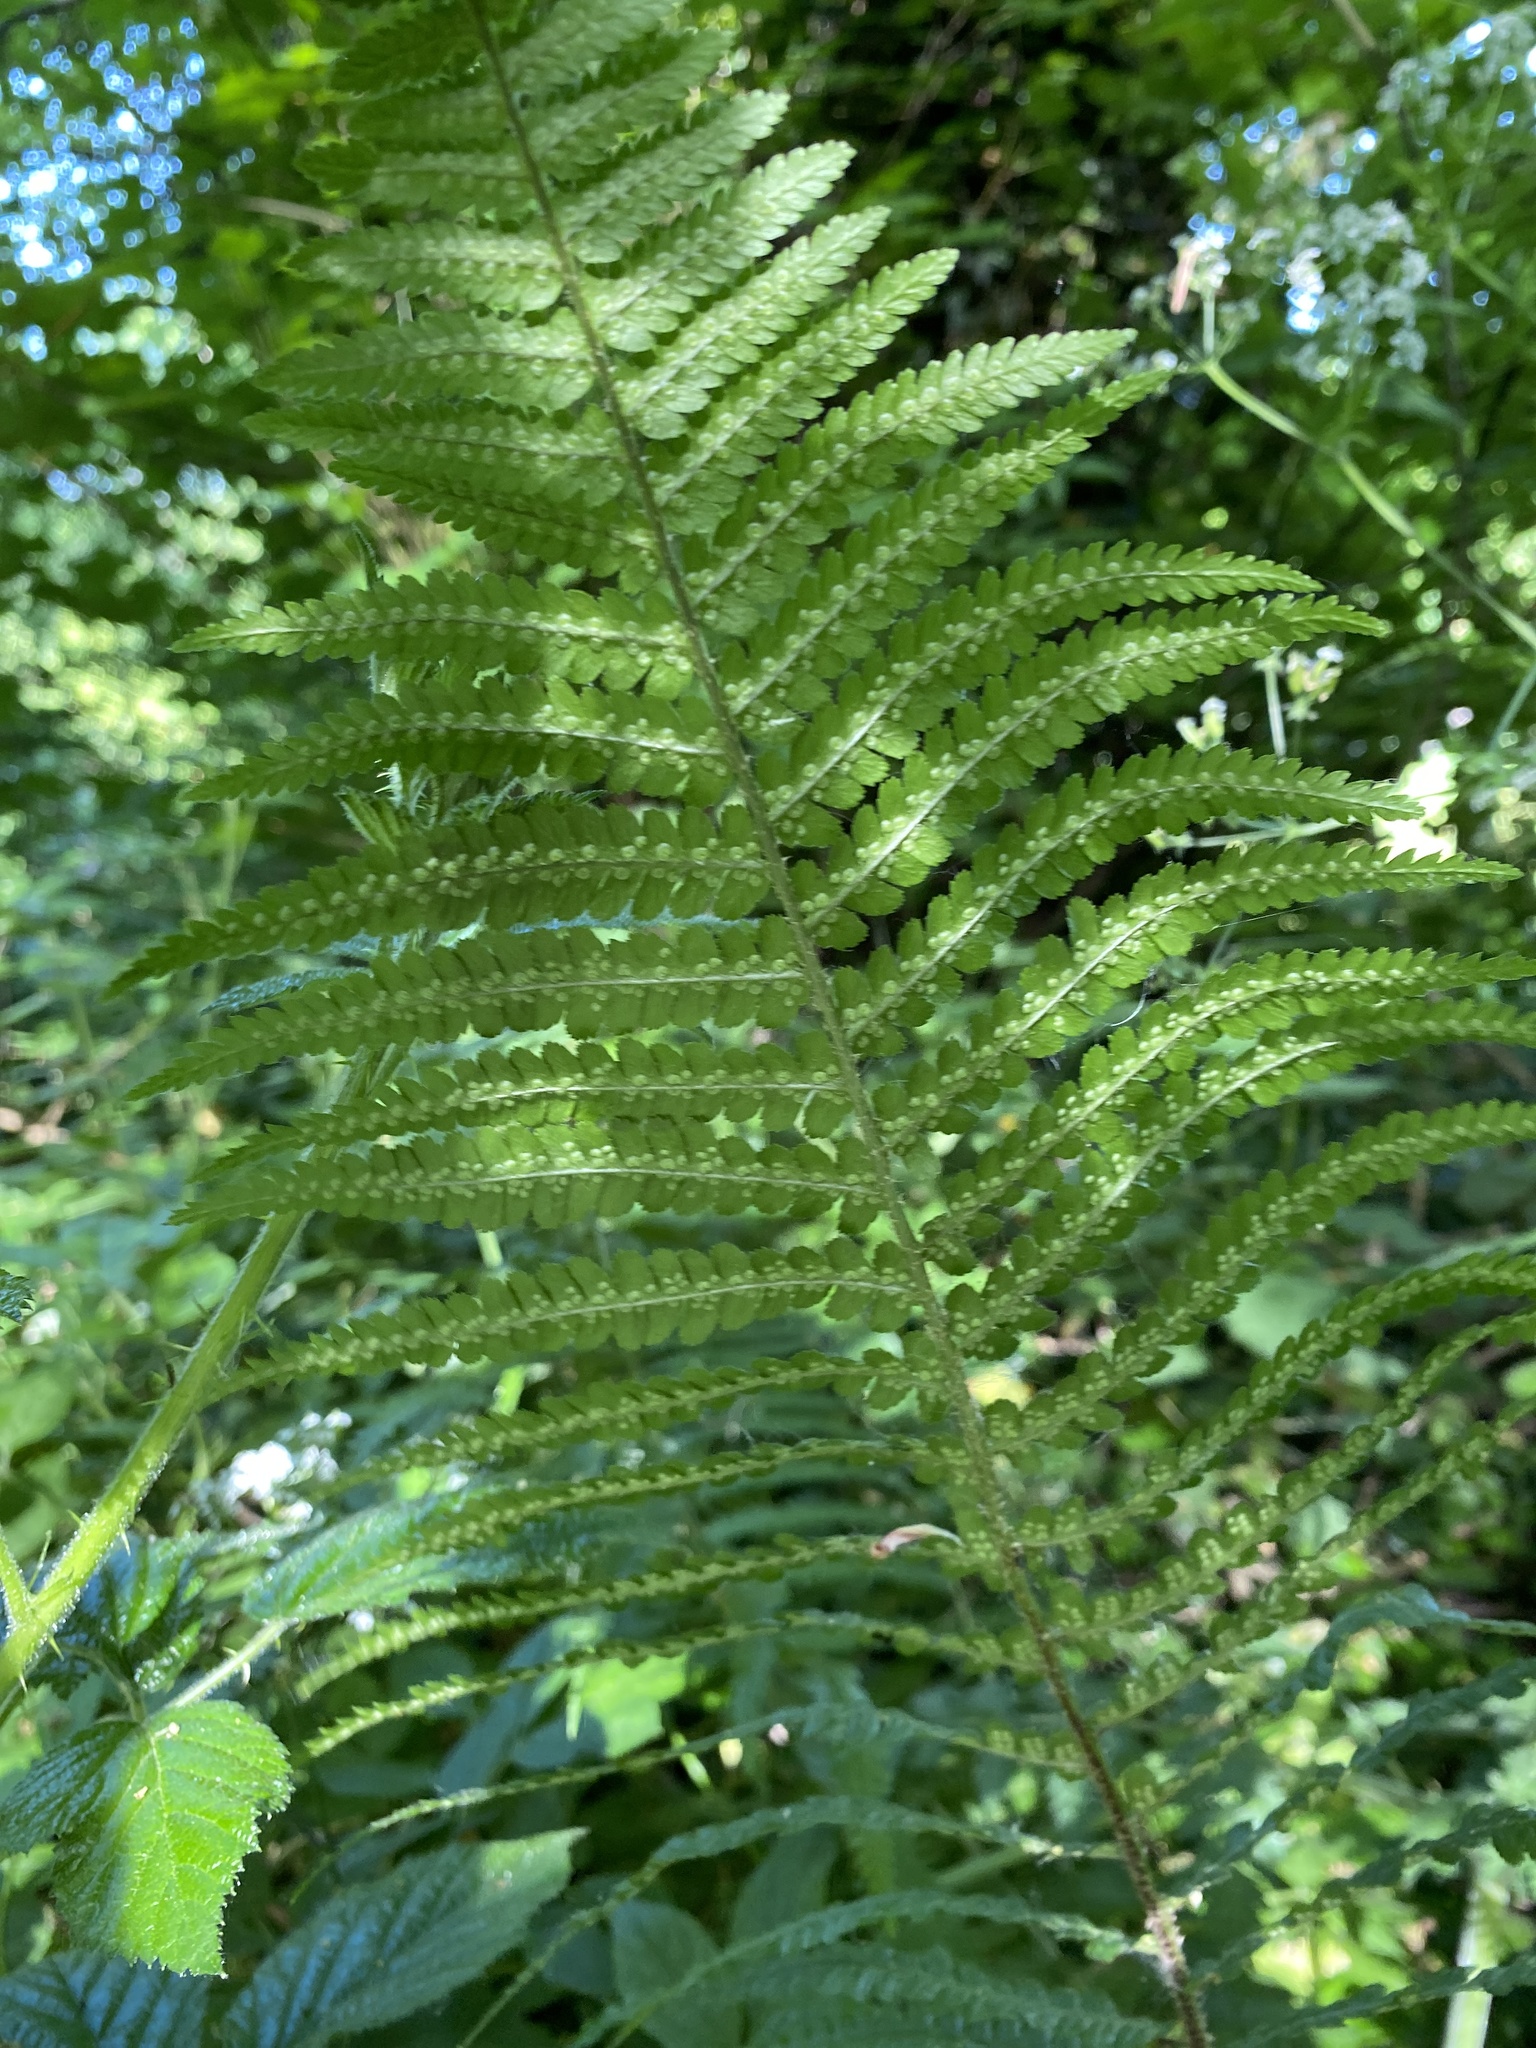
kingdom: Plantae
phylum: Tracheophyta
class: Polypodiopsida
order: Polypodiales
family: Dryopteridaceae
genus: Dryopteris
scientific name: Dryopteris filix-mas
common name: Male fern
